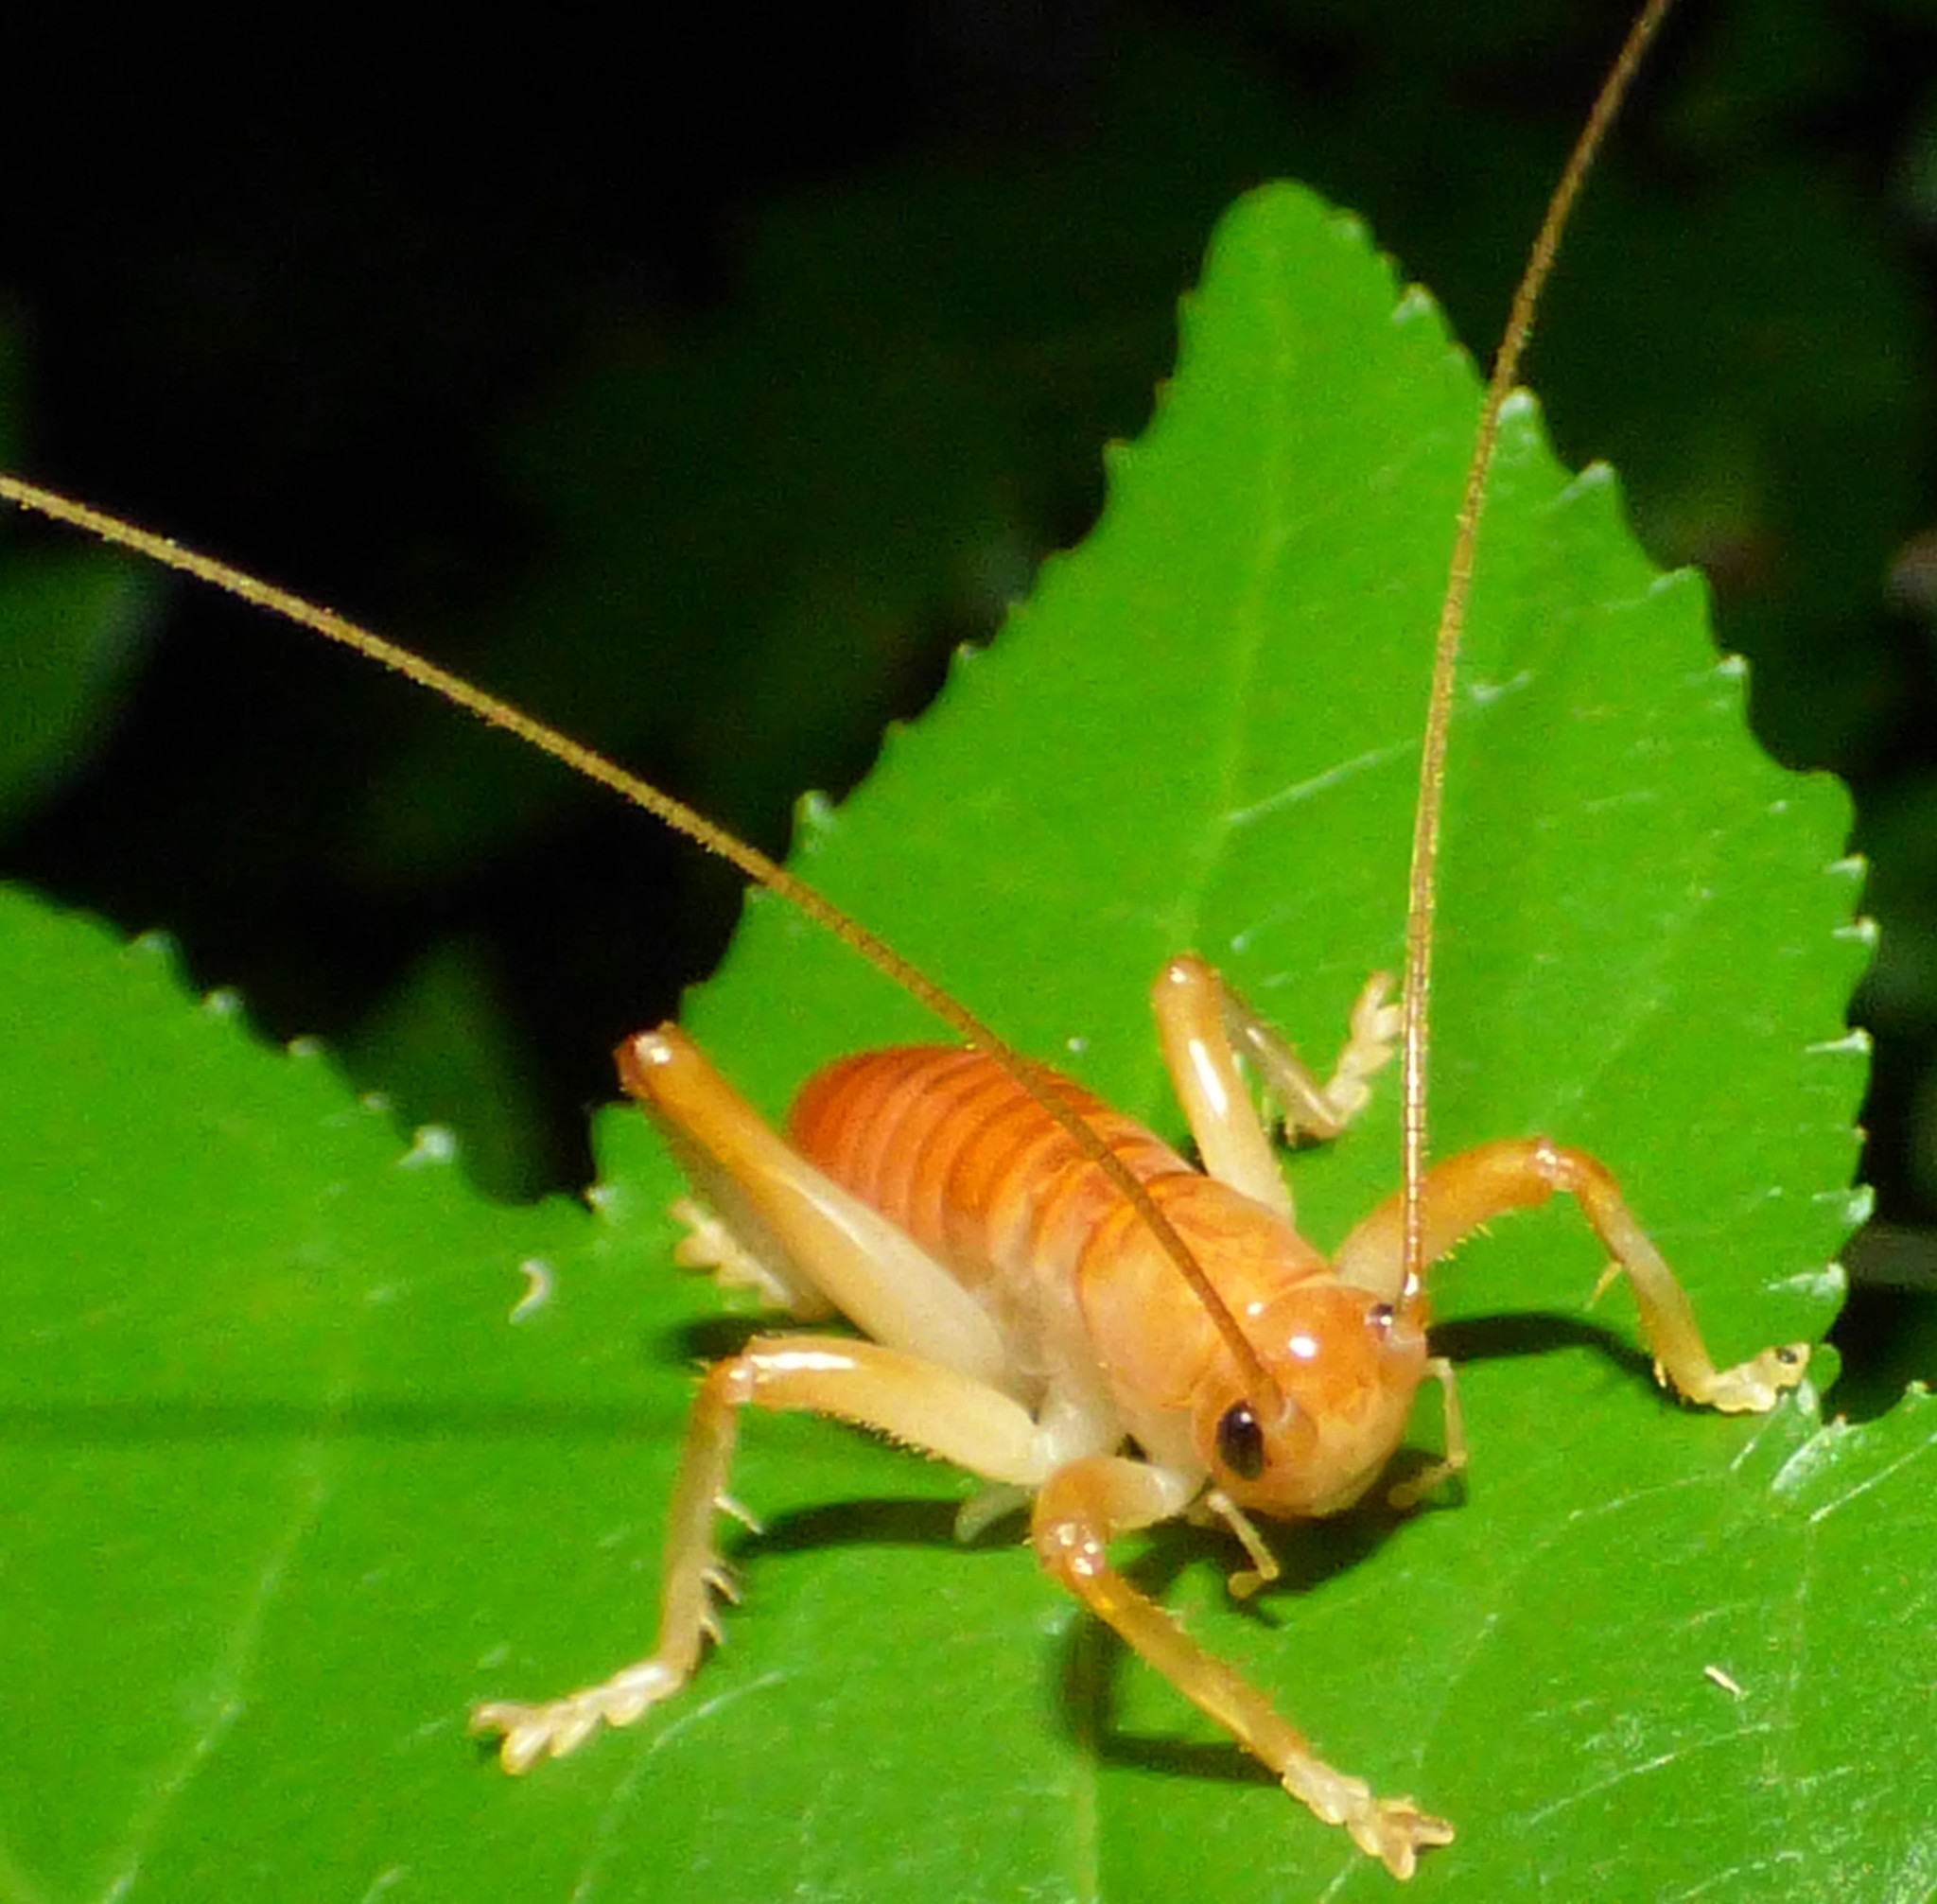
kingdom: Animalia
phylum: Arthropoda
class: Insecta
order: Orthoptera
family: Gryllacrididae
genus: Camptonotus
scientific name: Camptonotus carolinensis
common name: Carolina leaf-roller
